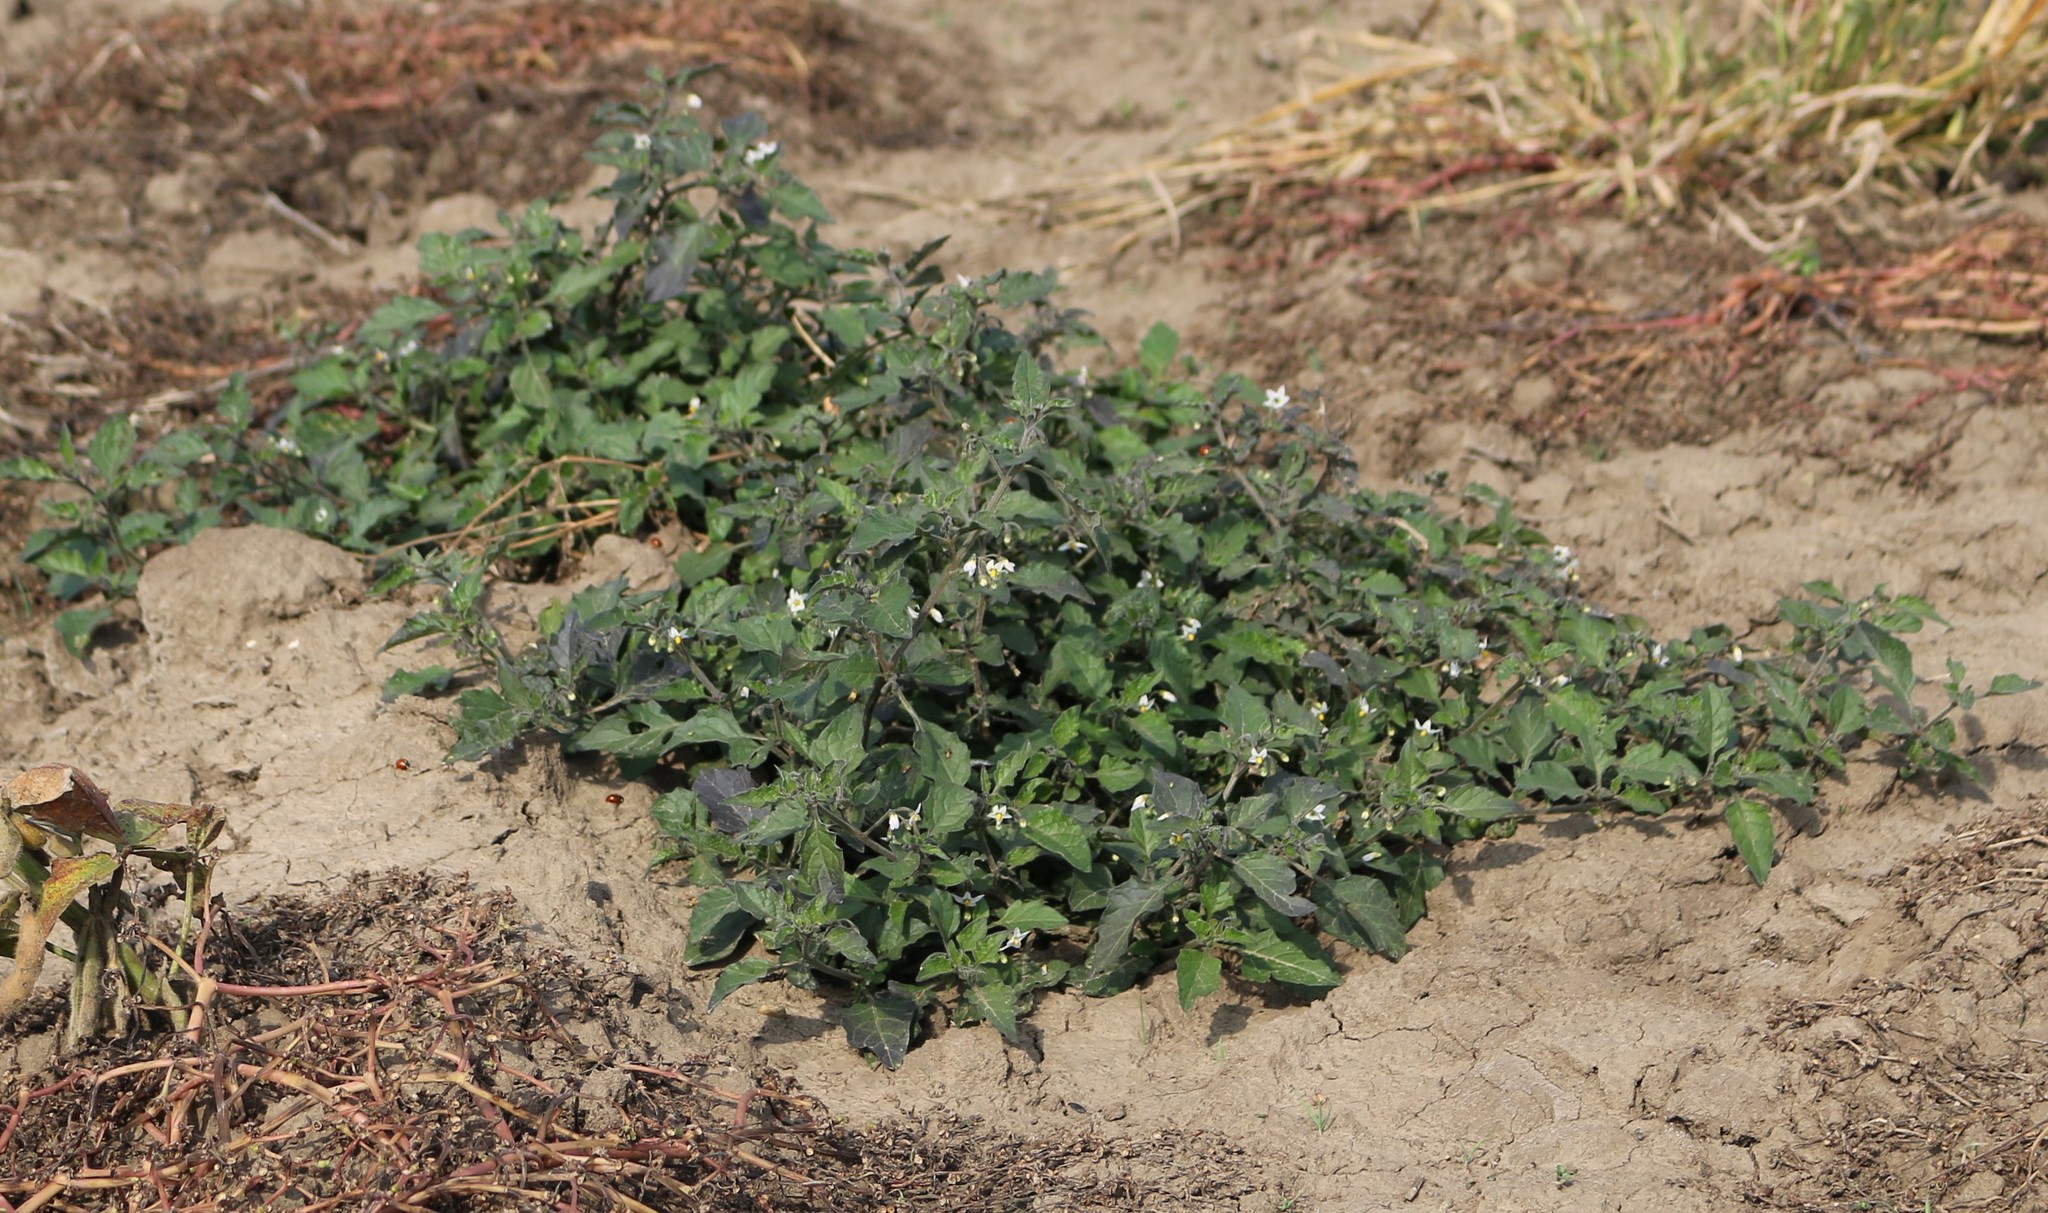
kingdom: Plantae
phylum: Tracheophyta
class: Magnoliopsida
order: Solanales
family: Solanaceae
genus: Solanum
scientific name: Solanum nigrum
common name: Black nightshade
